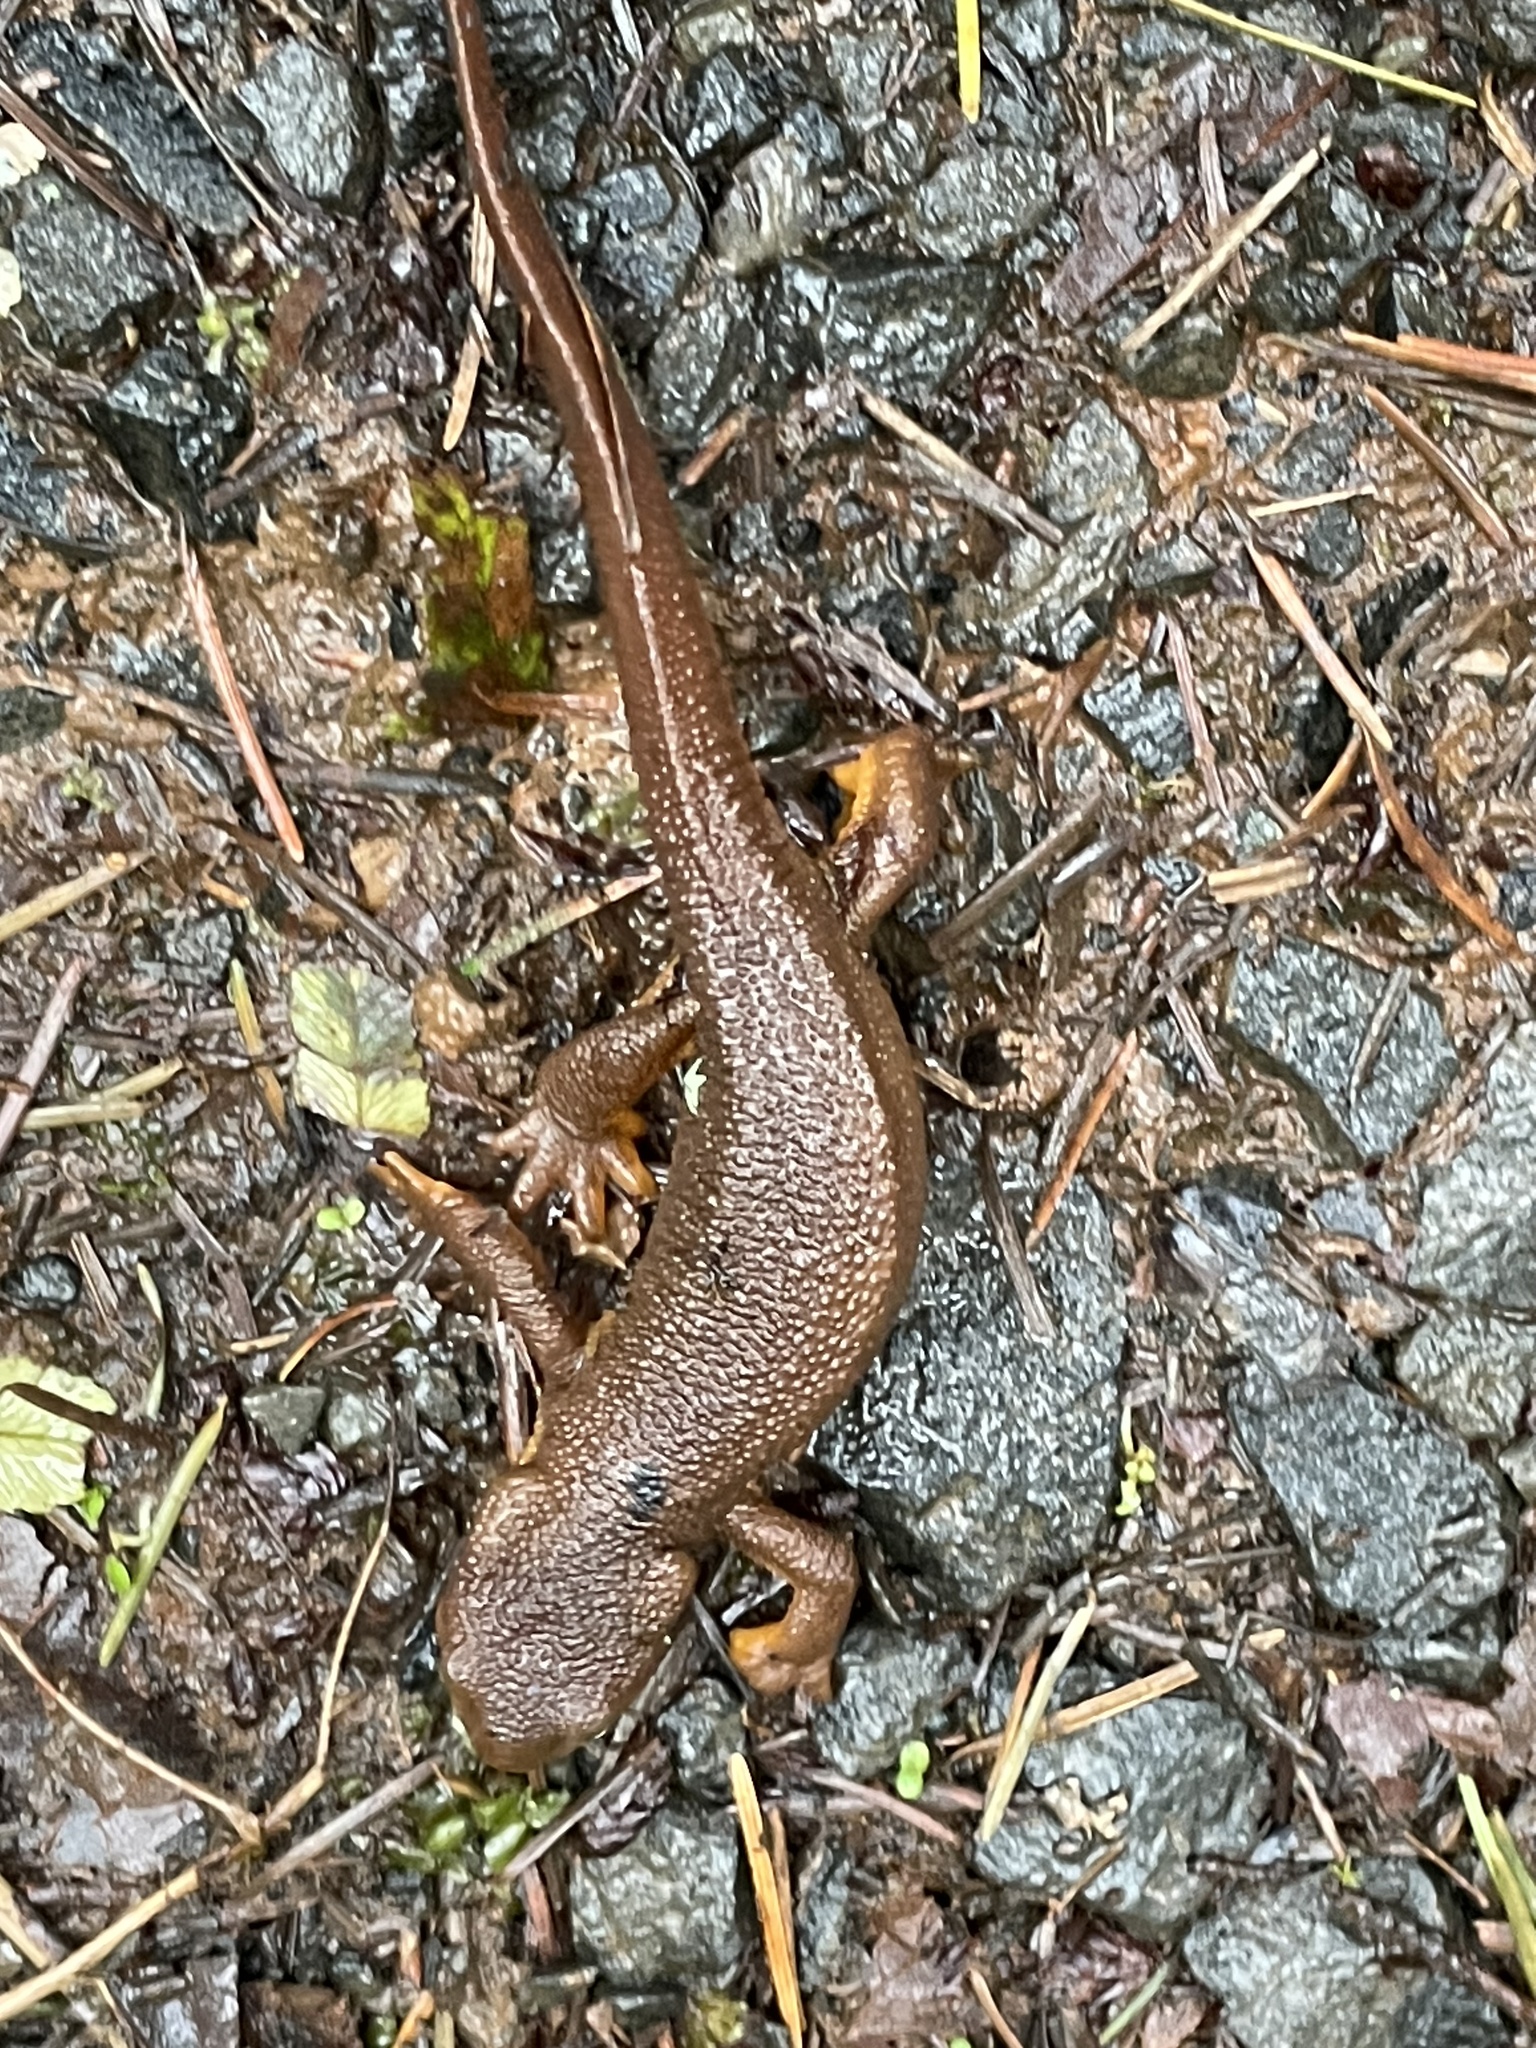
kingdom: Animalia
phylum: Chordata
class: Amphibia
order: Caudata
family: Salamandridae
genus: Taricha
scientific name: Taricha granulosa
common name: Roughskin newt
